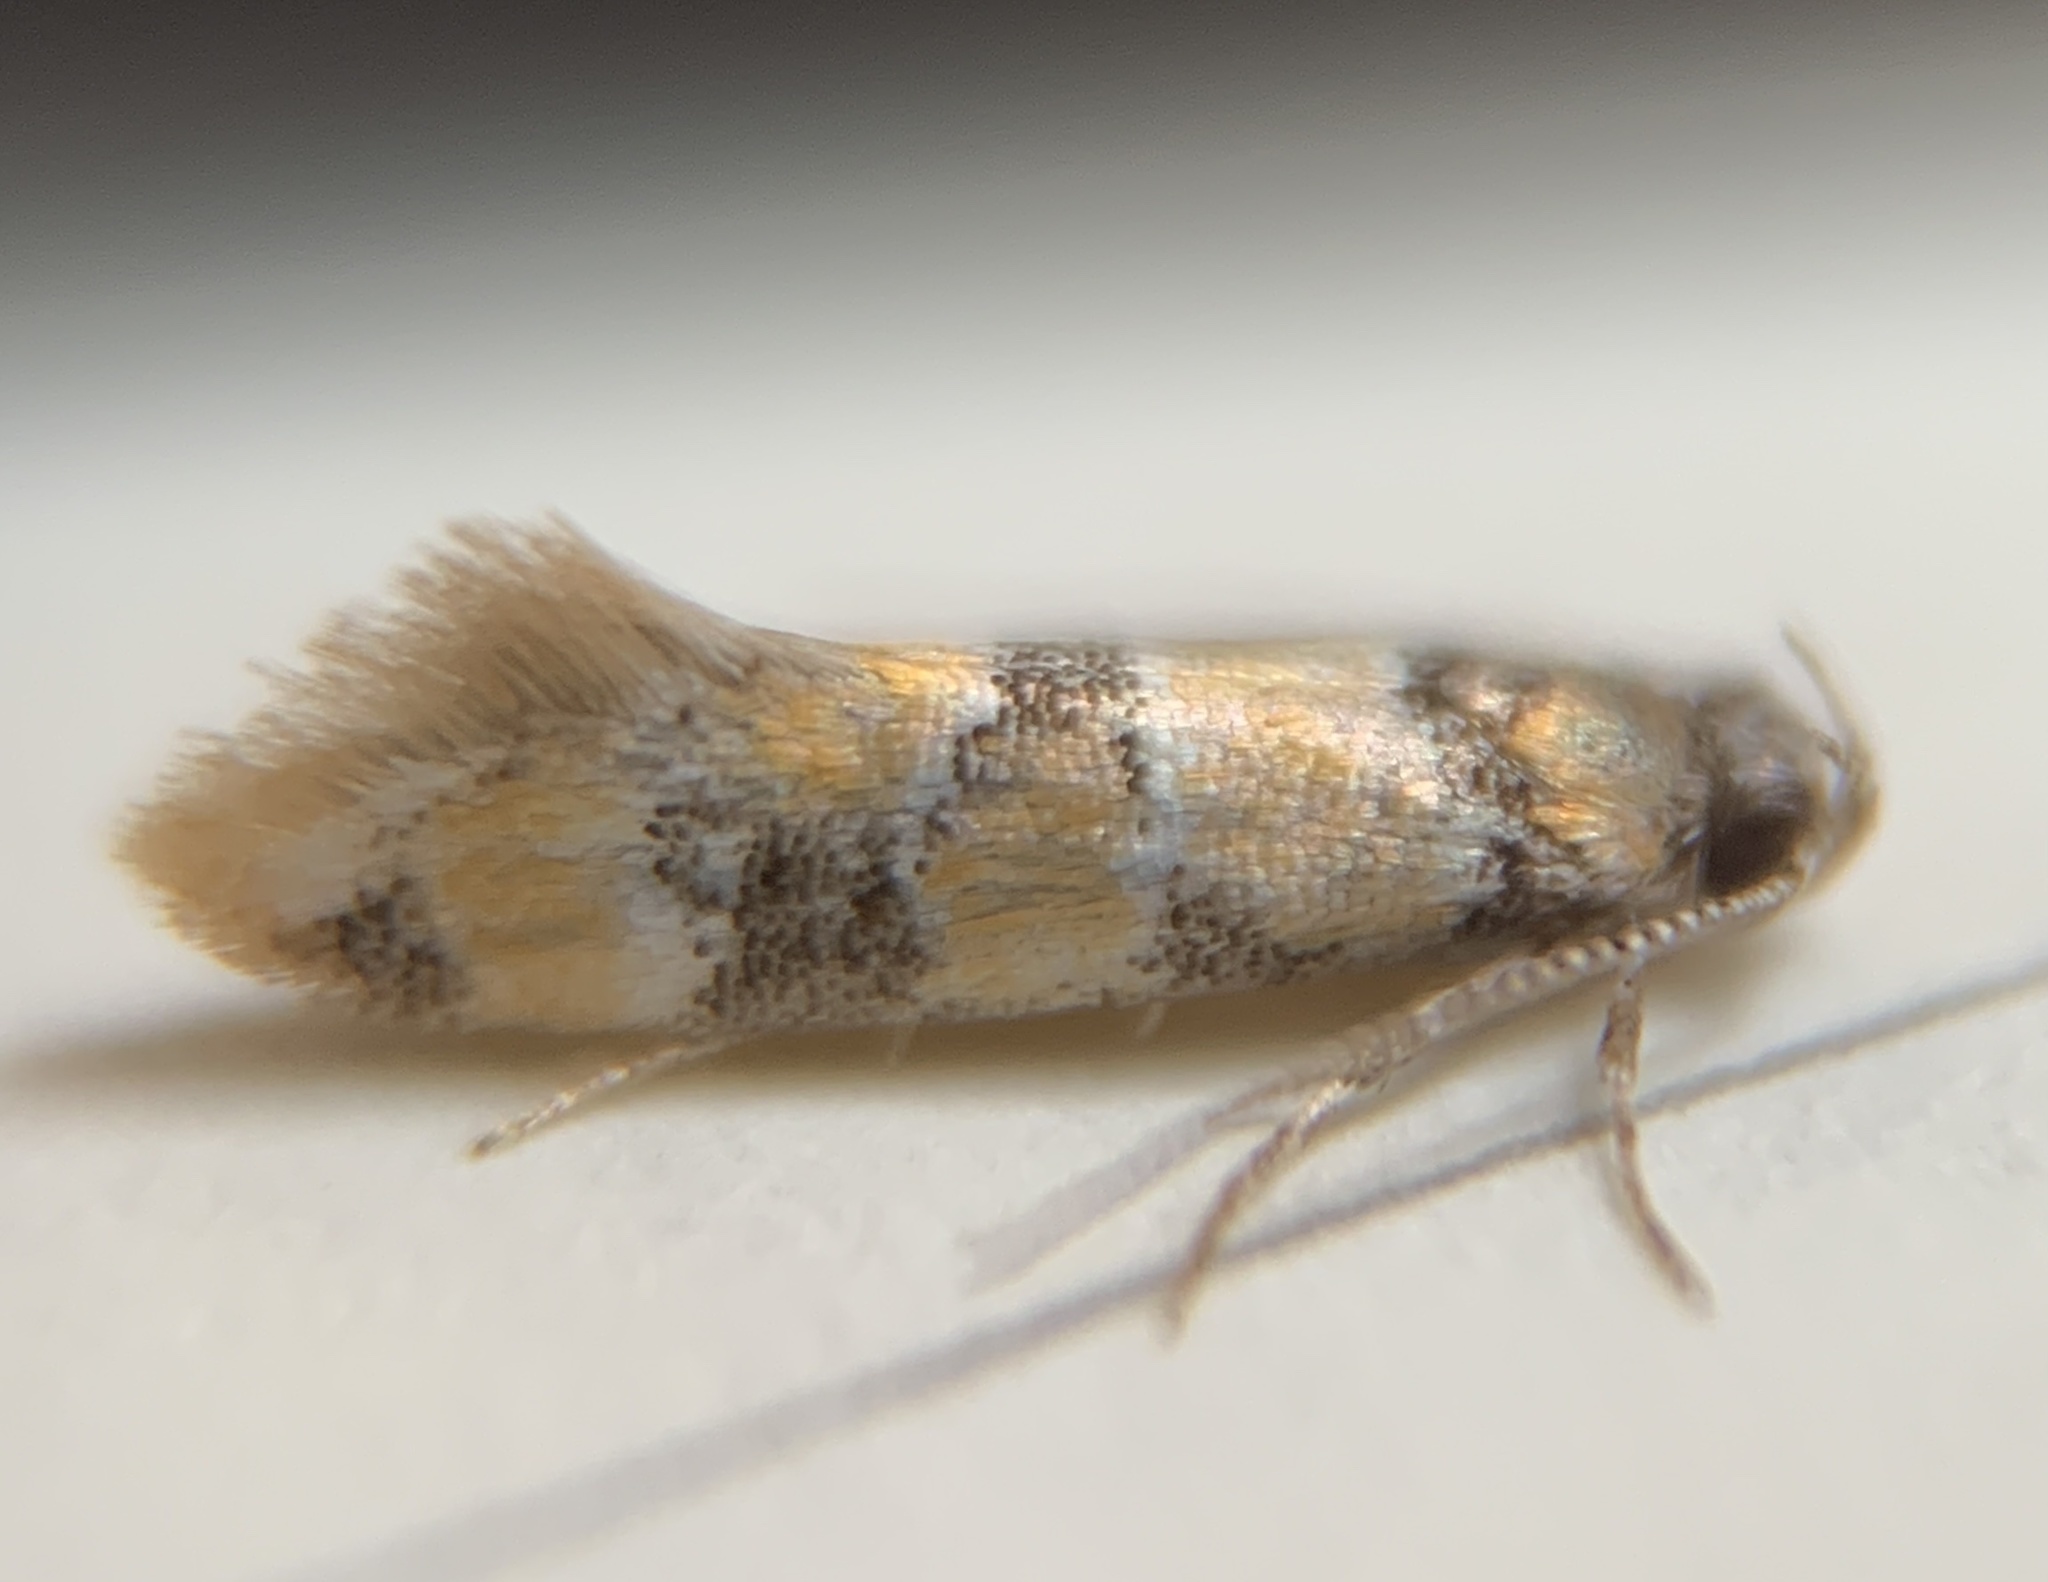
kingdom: Animalia
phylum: Arthropoda
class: Insecta
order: Lepidoptera
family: Oecophoridae
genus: Decantha
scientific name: Decantha borkhausenii
